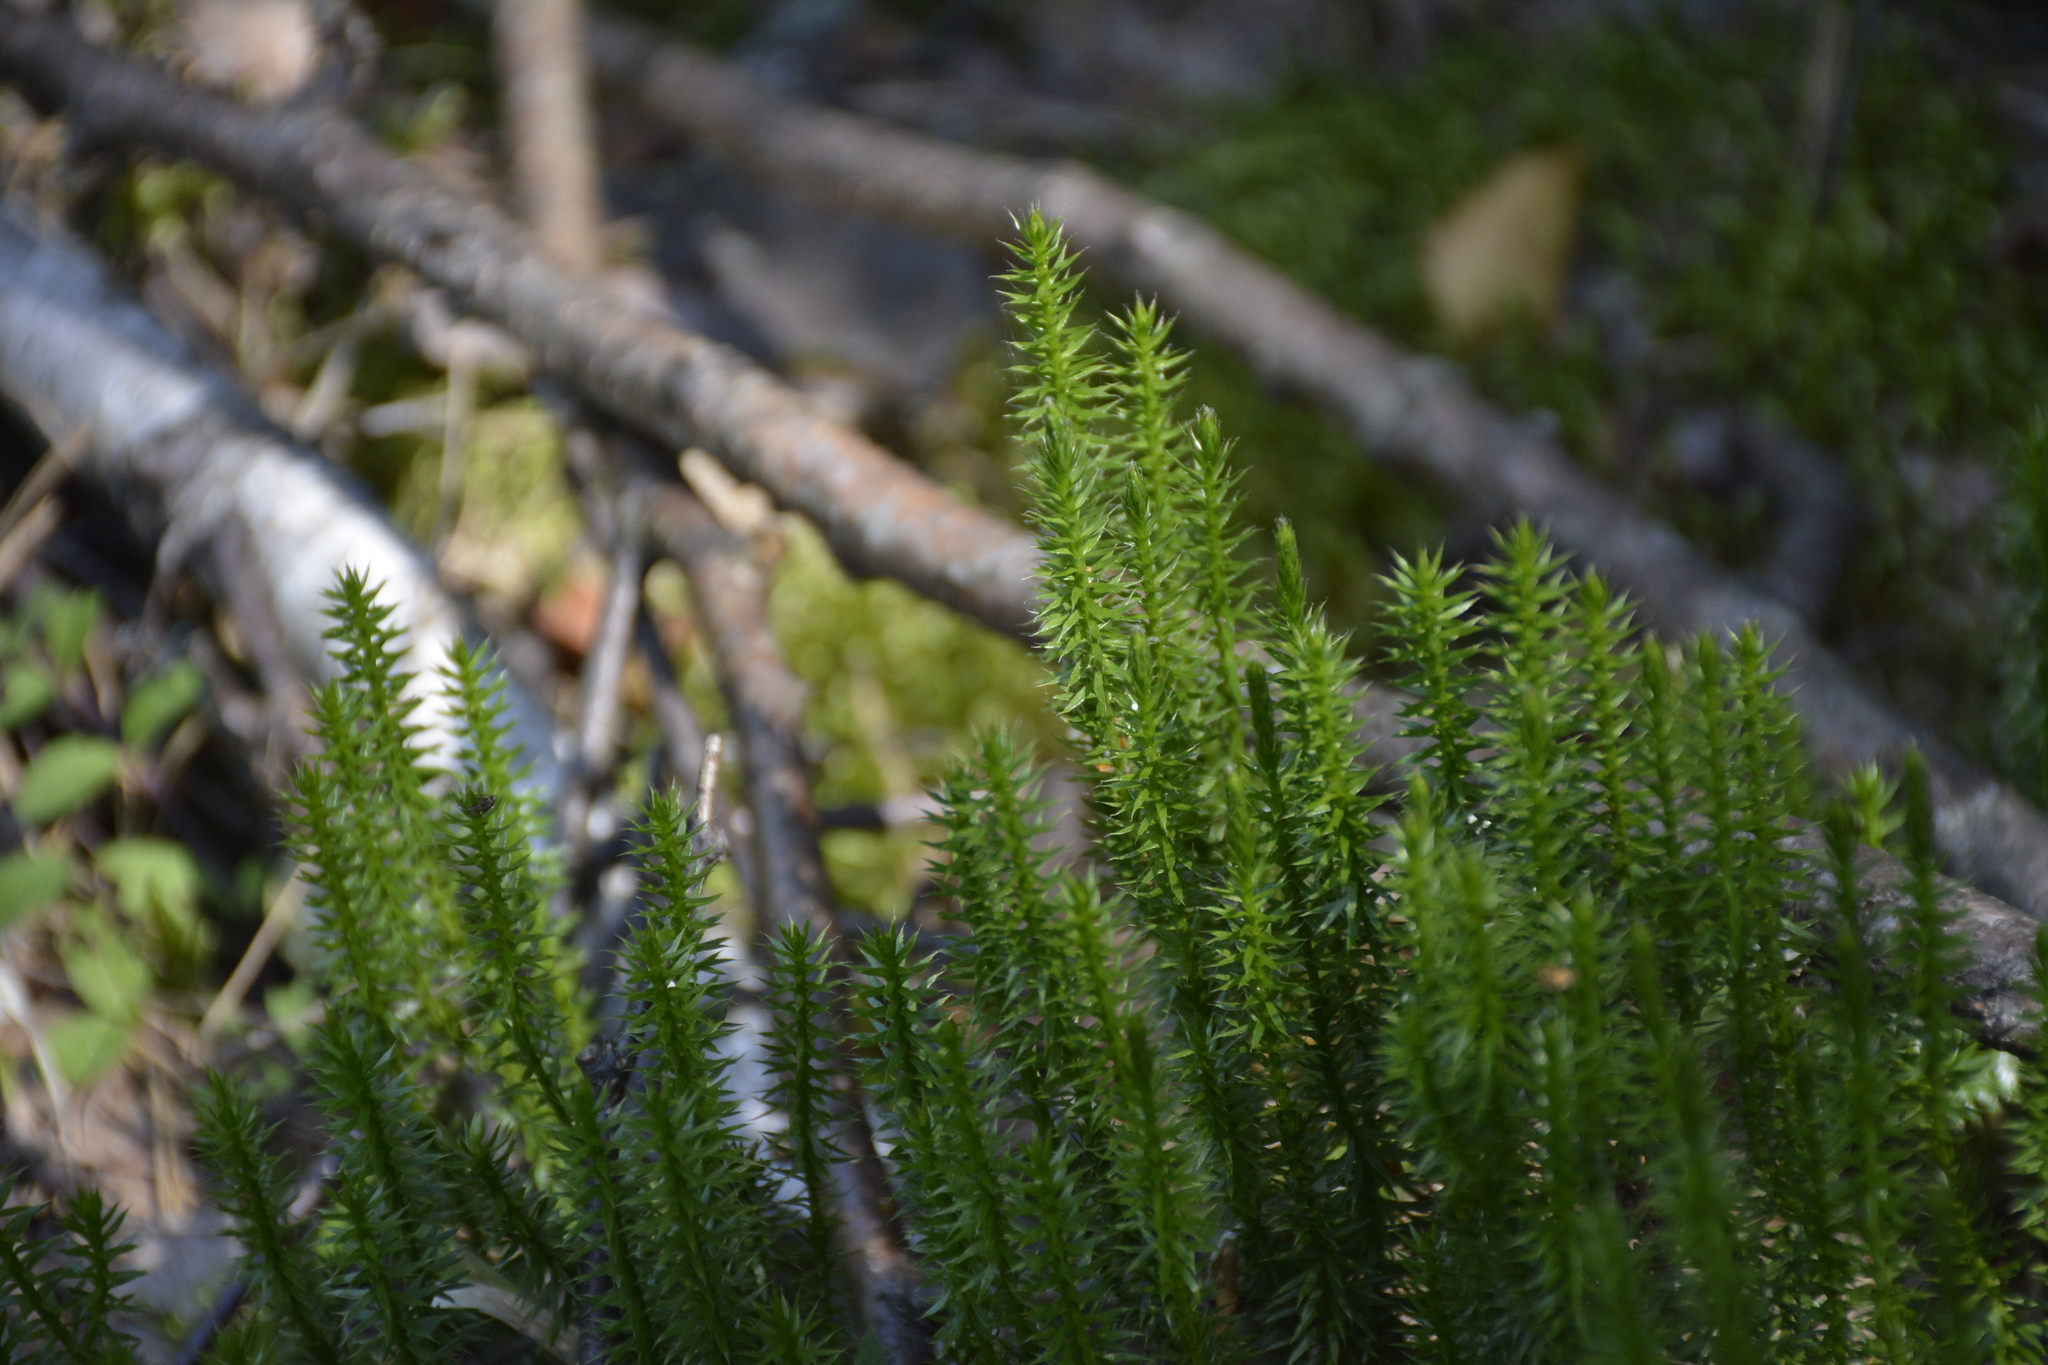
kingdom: Plantae
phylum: Tracheophyta
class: Lycopodiopsida
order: Lycopodiales
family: Lycopodiaceae
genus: Spinulum
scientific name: Spinulum annotinum
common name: Interrupted club-moss
